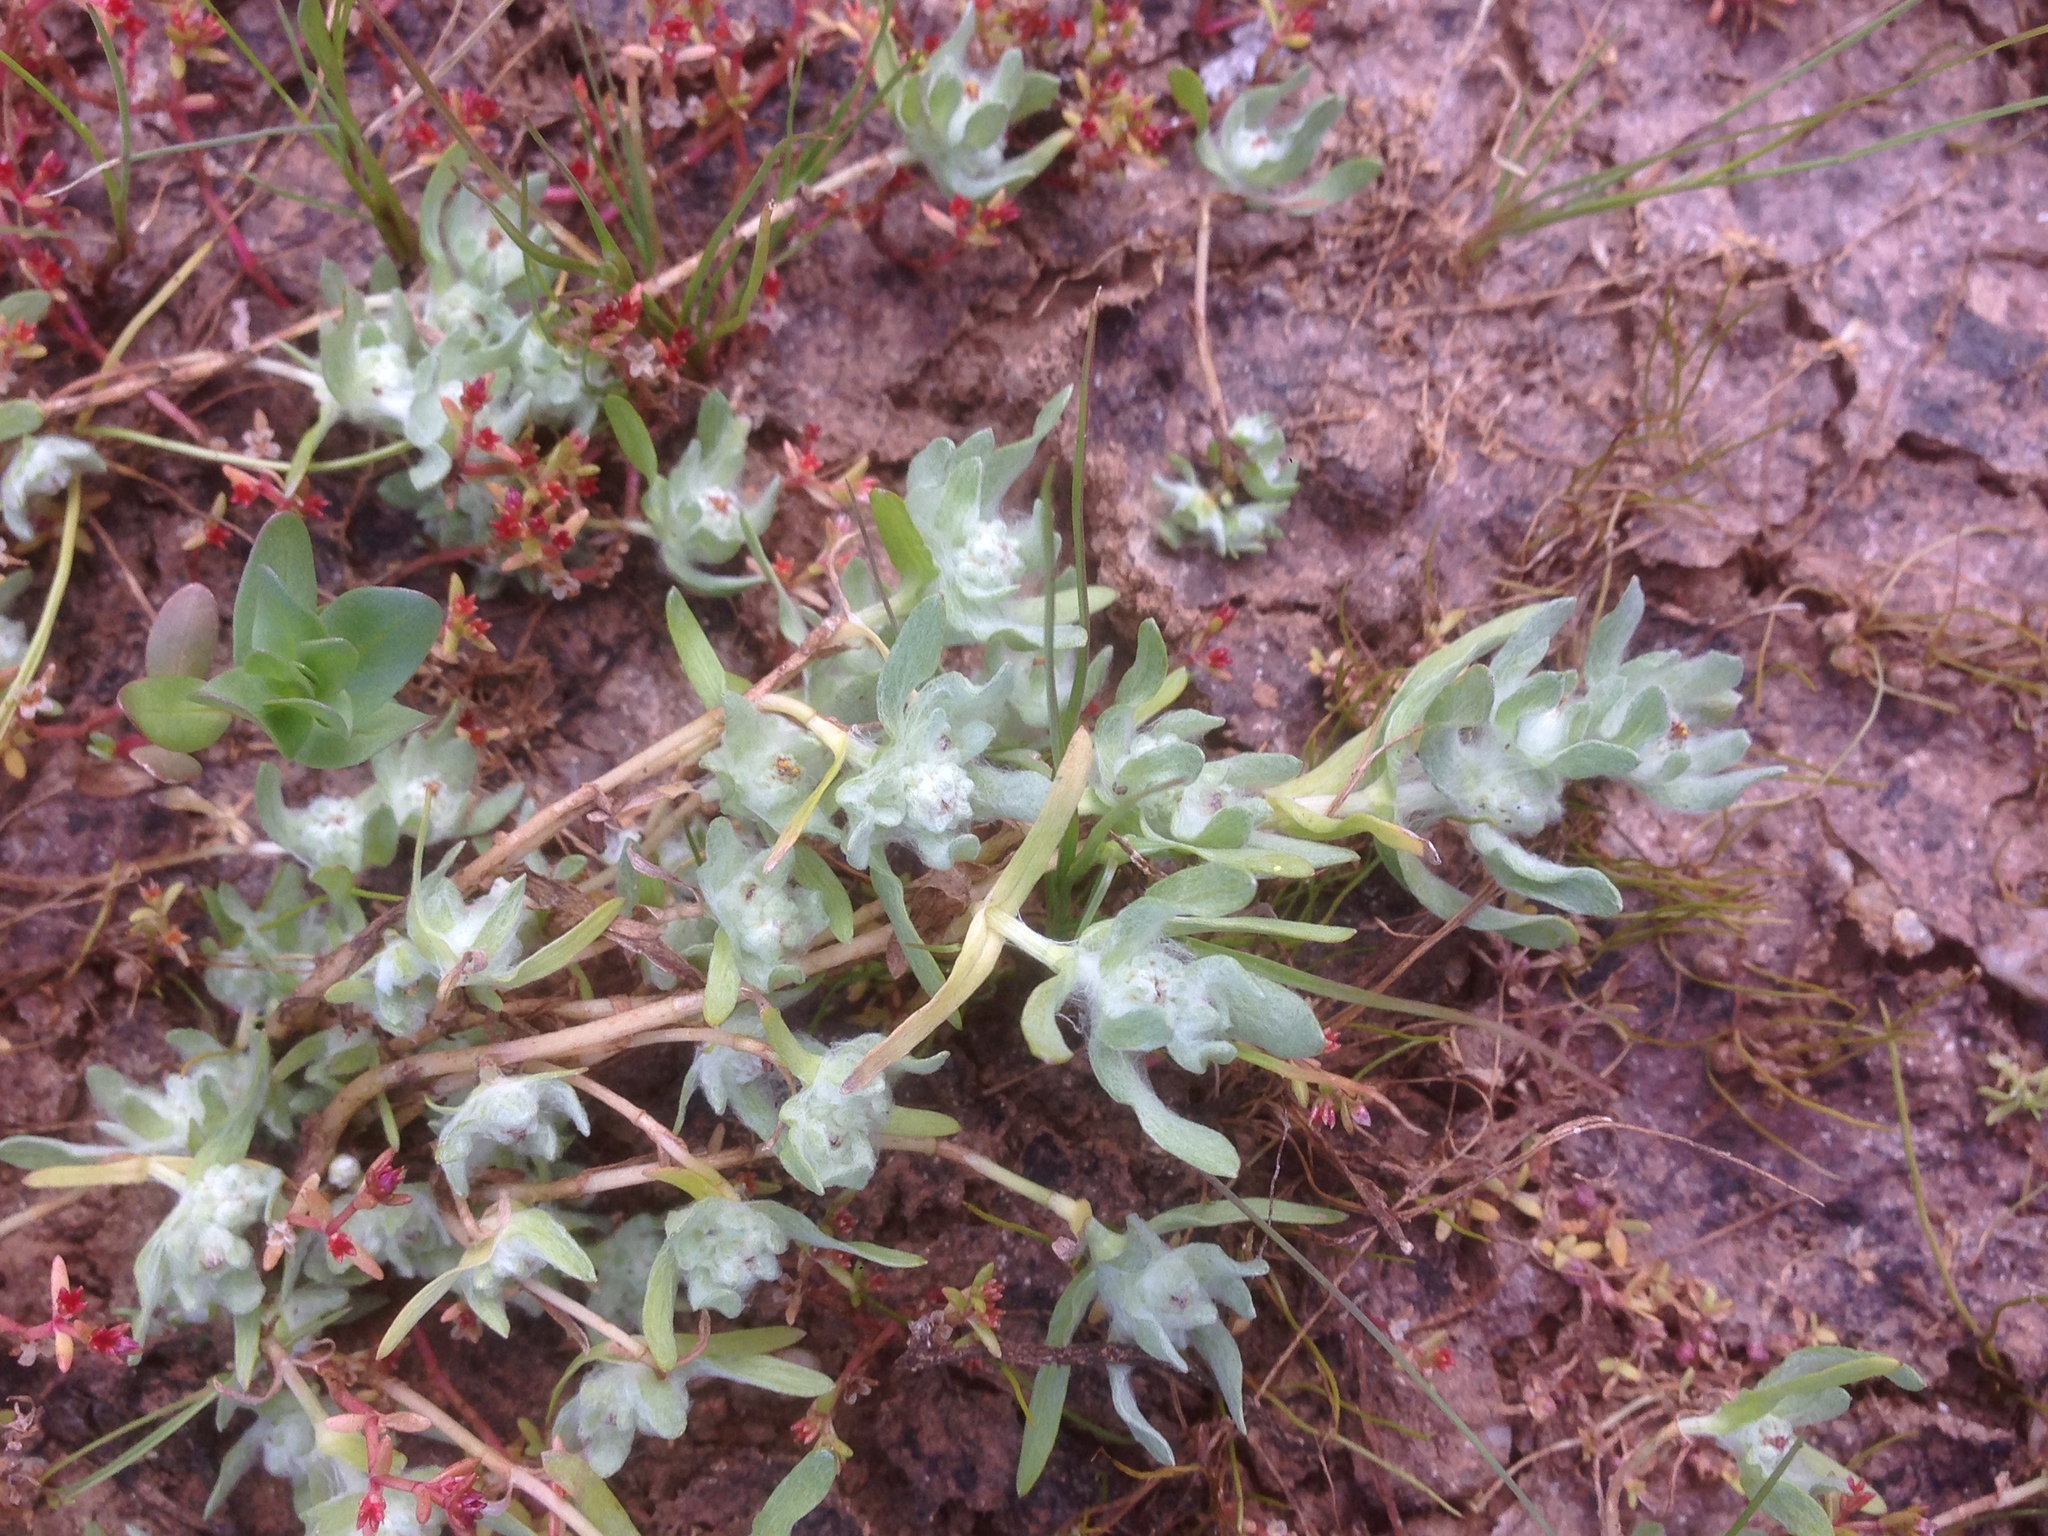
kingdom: Plantae
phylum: Tracheophyta
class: Magnoliopsida
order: Asterales
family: Asteraceae
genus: Psilocarphus
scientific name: Psilocarphus brevissimus
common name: Dwarf woollyheads
